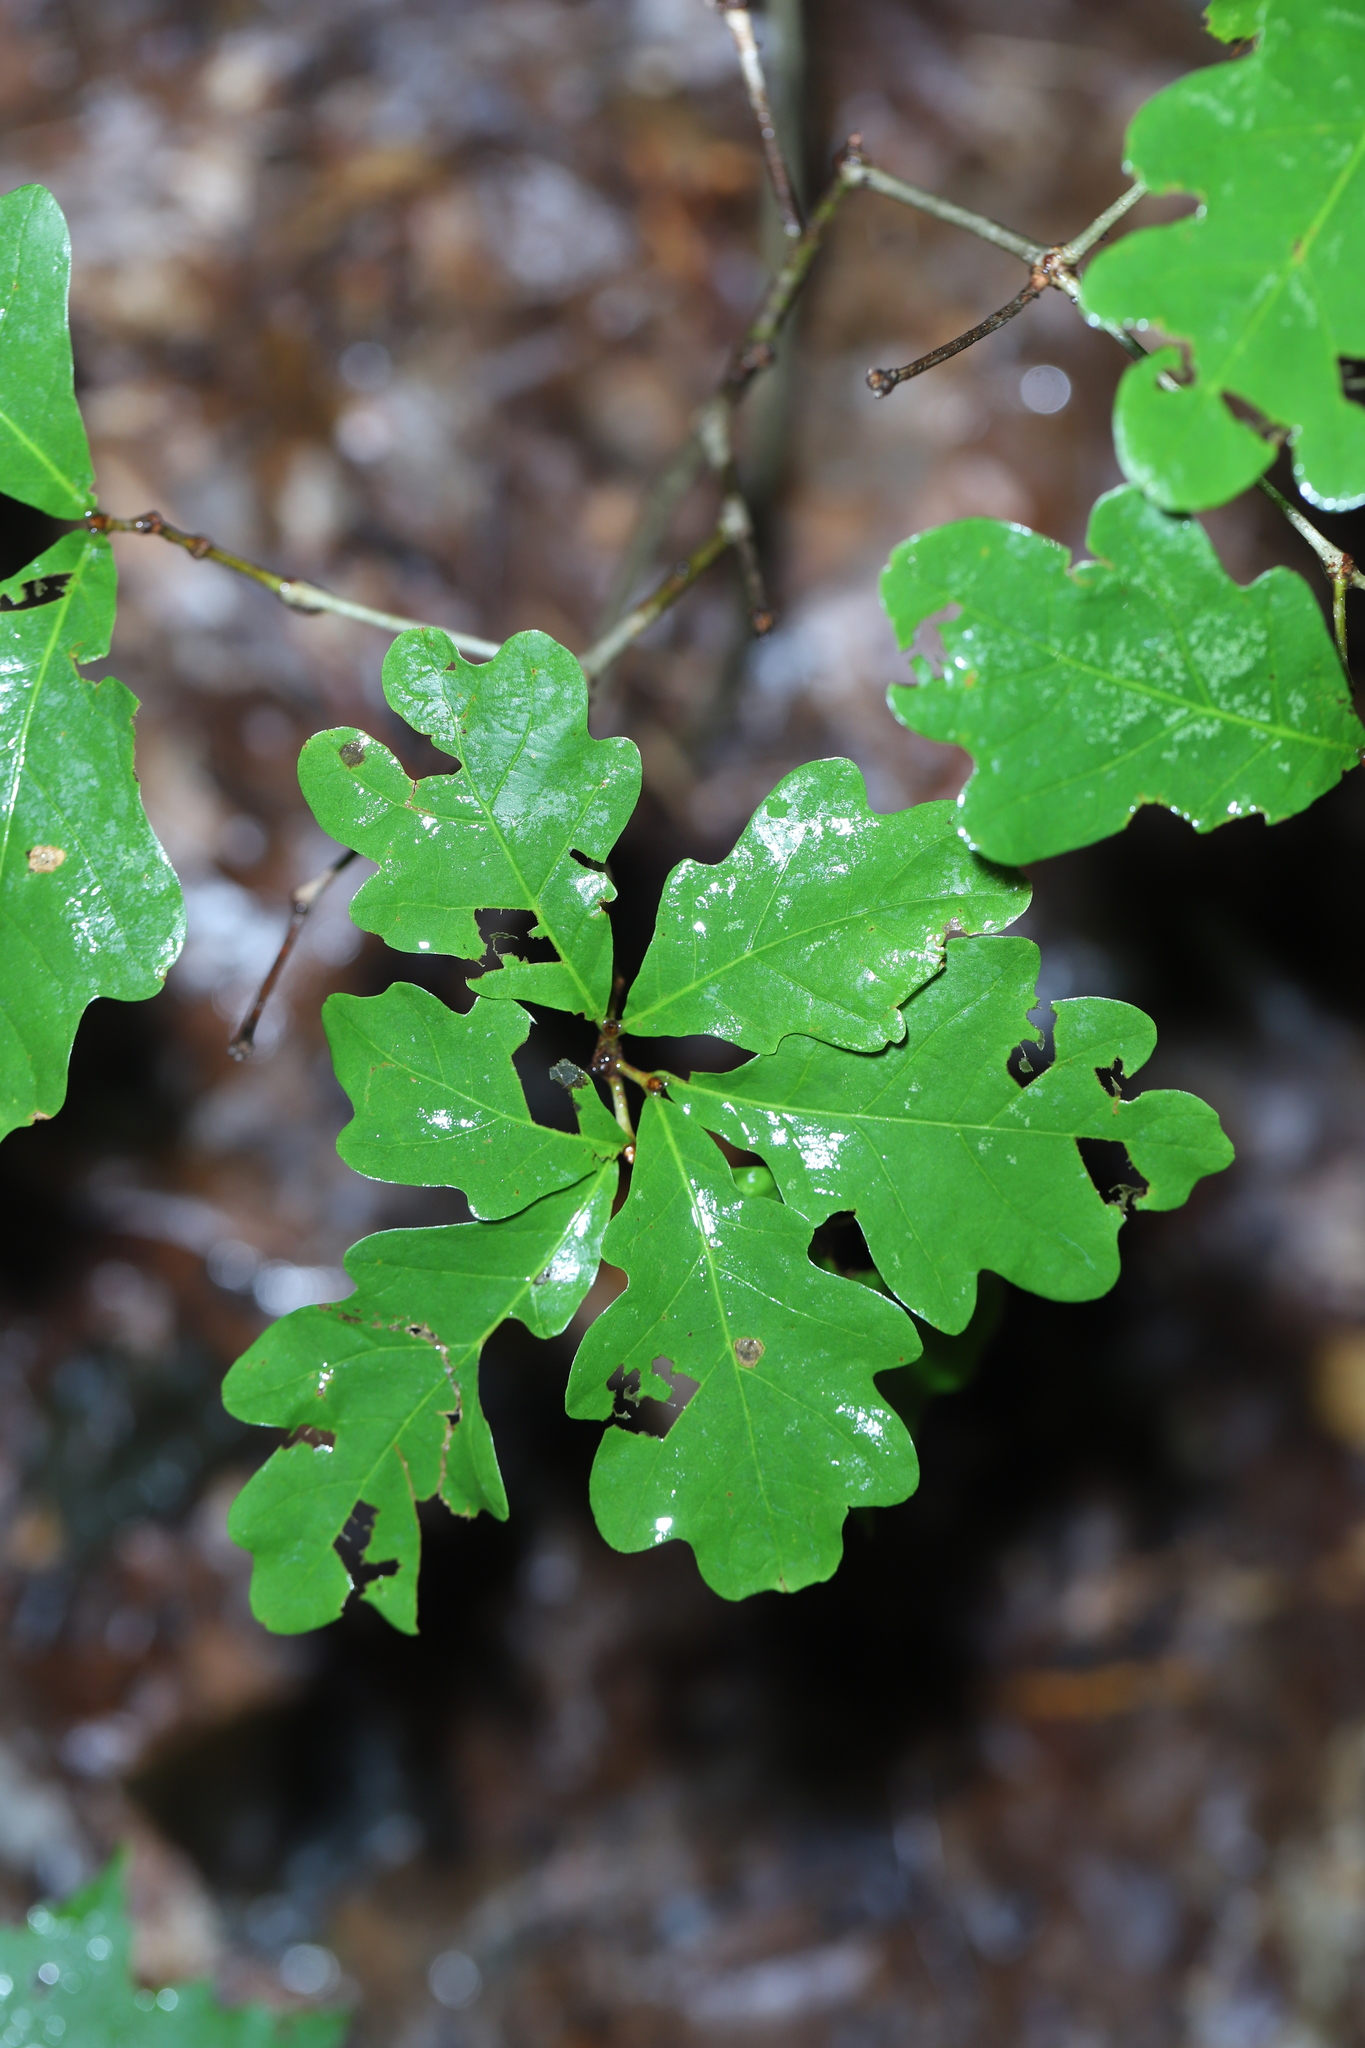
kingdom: Plantae
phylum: Tracheophyta
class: Magnoliopsida
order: Fagales
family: Fagaceae
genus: Quercus
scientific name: Quercus alba
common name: White oak
